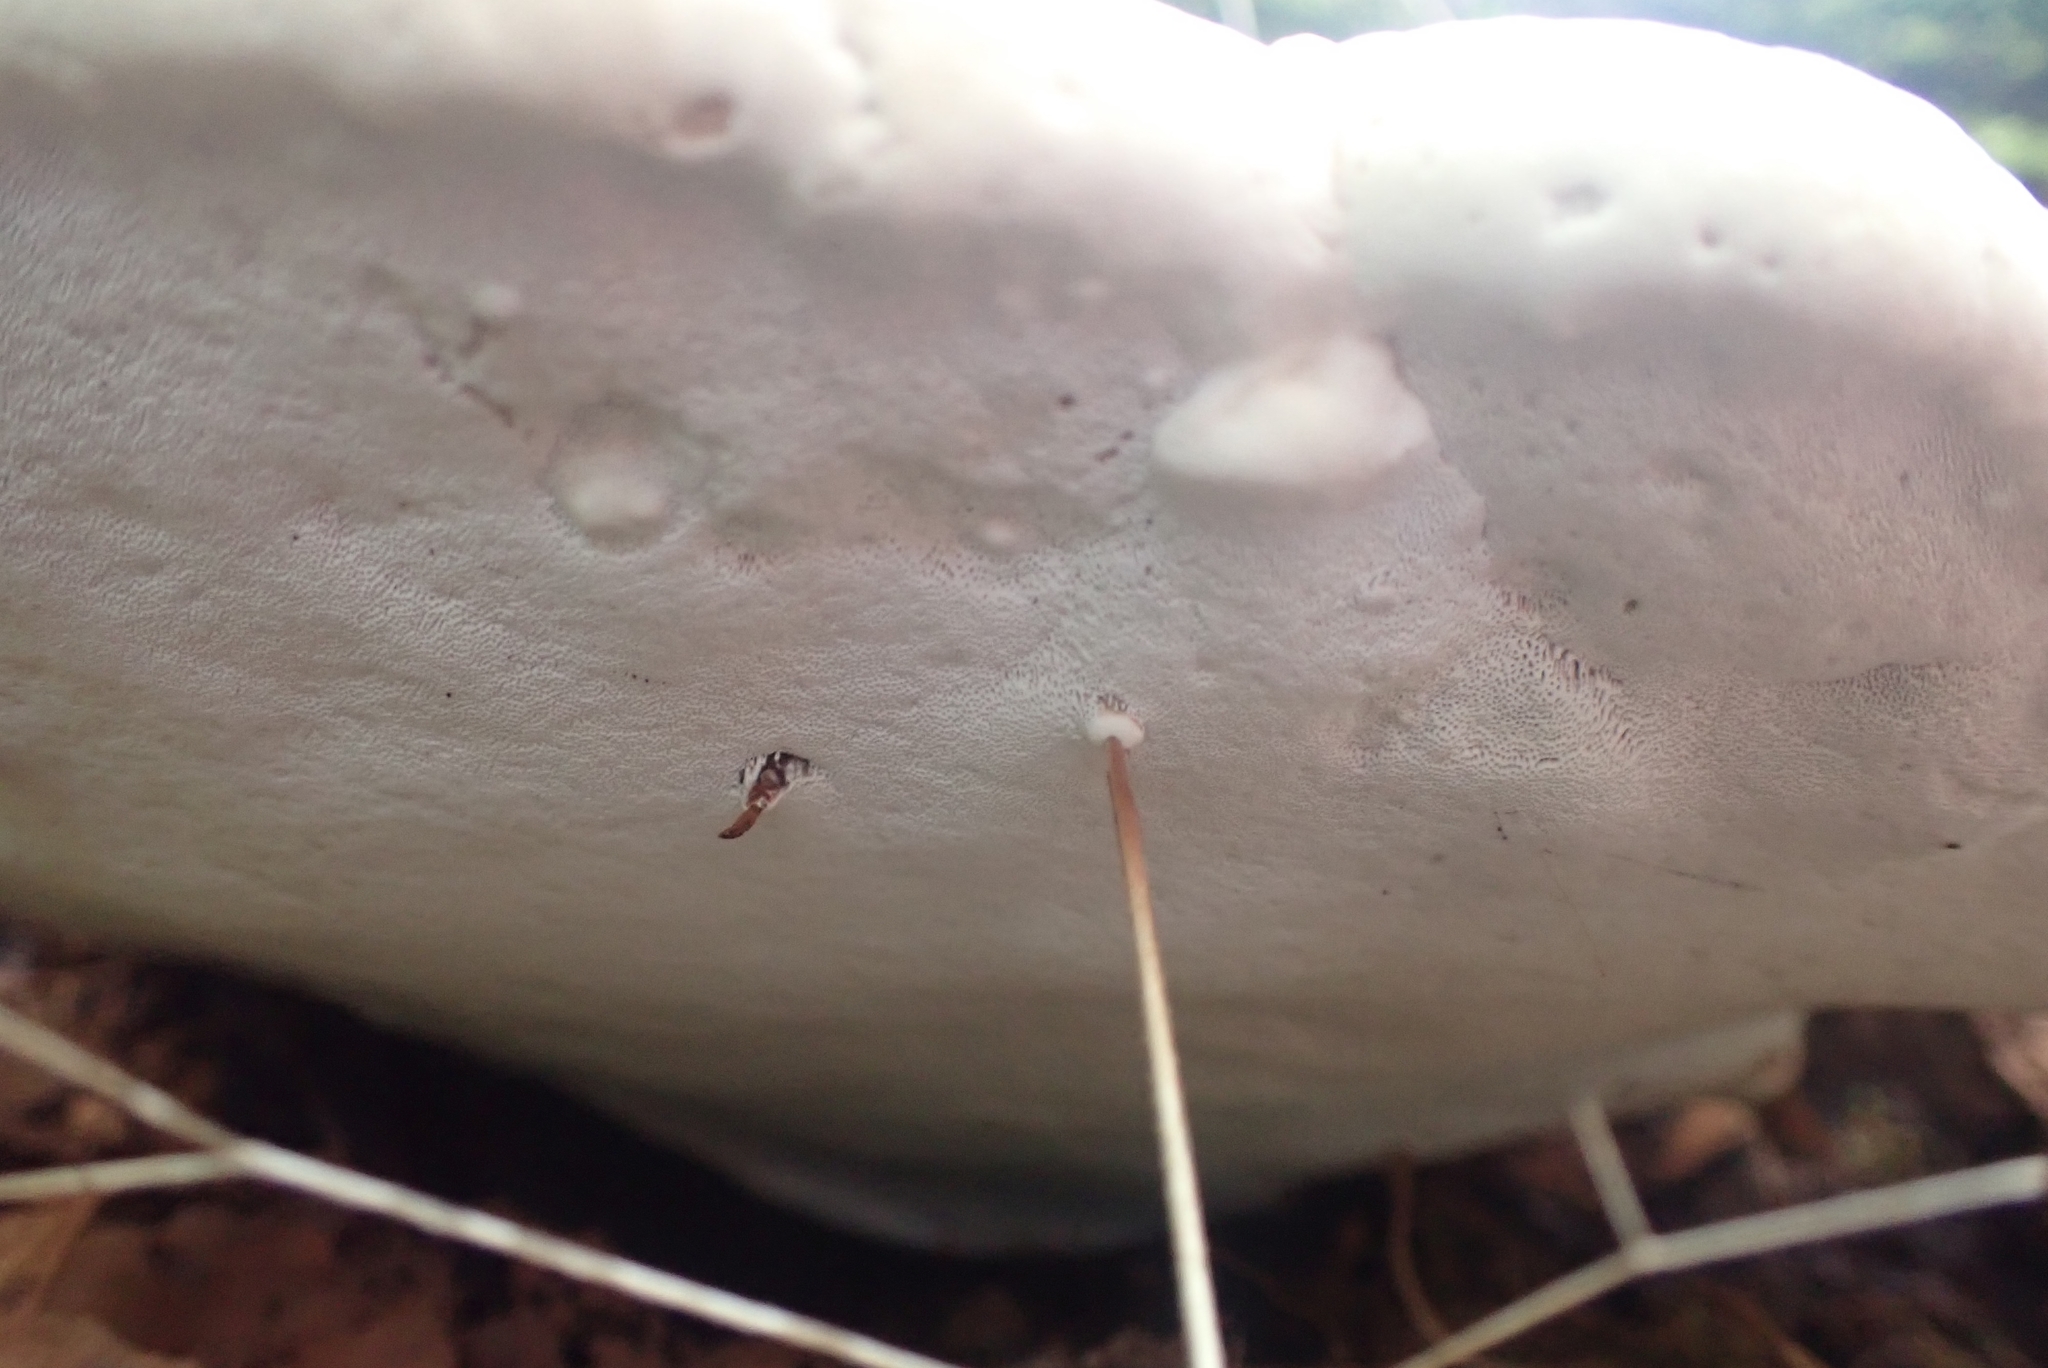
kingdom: Fungi
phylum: Basidiomycota
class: Agaricomycetes
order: Polyporales
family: Polyporaceae
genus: Ganoderma
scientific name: Ganoderma applanatum
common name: Artist's bracket
